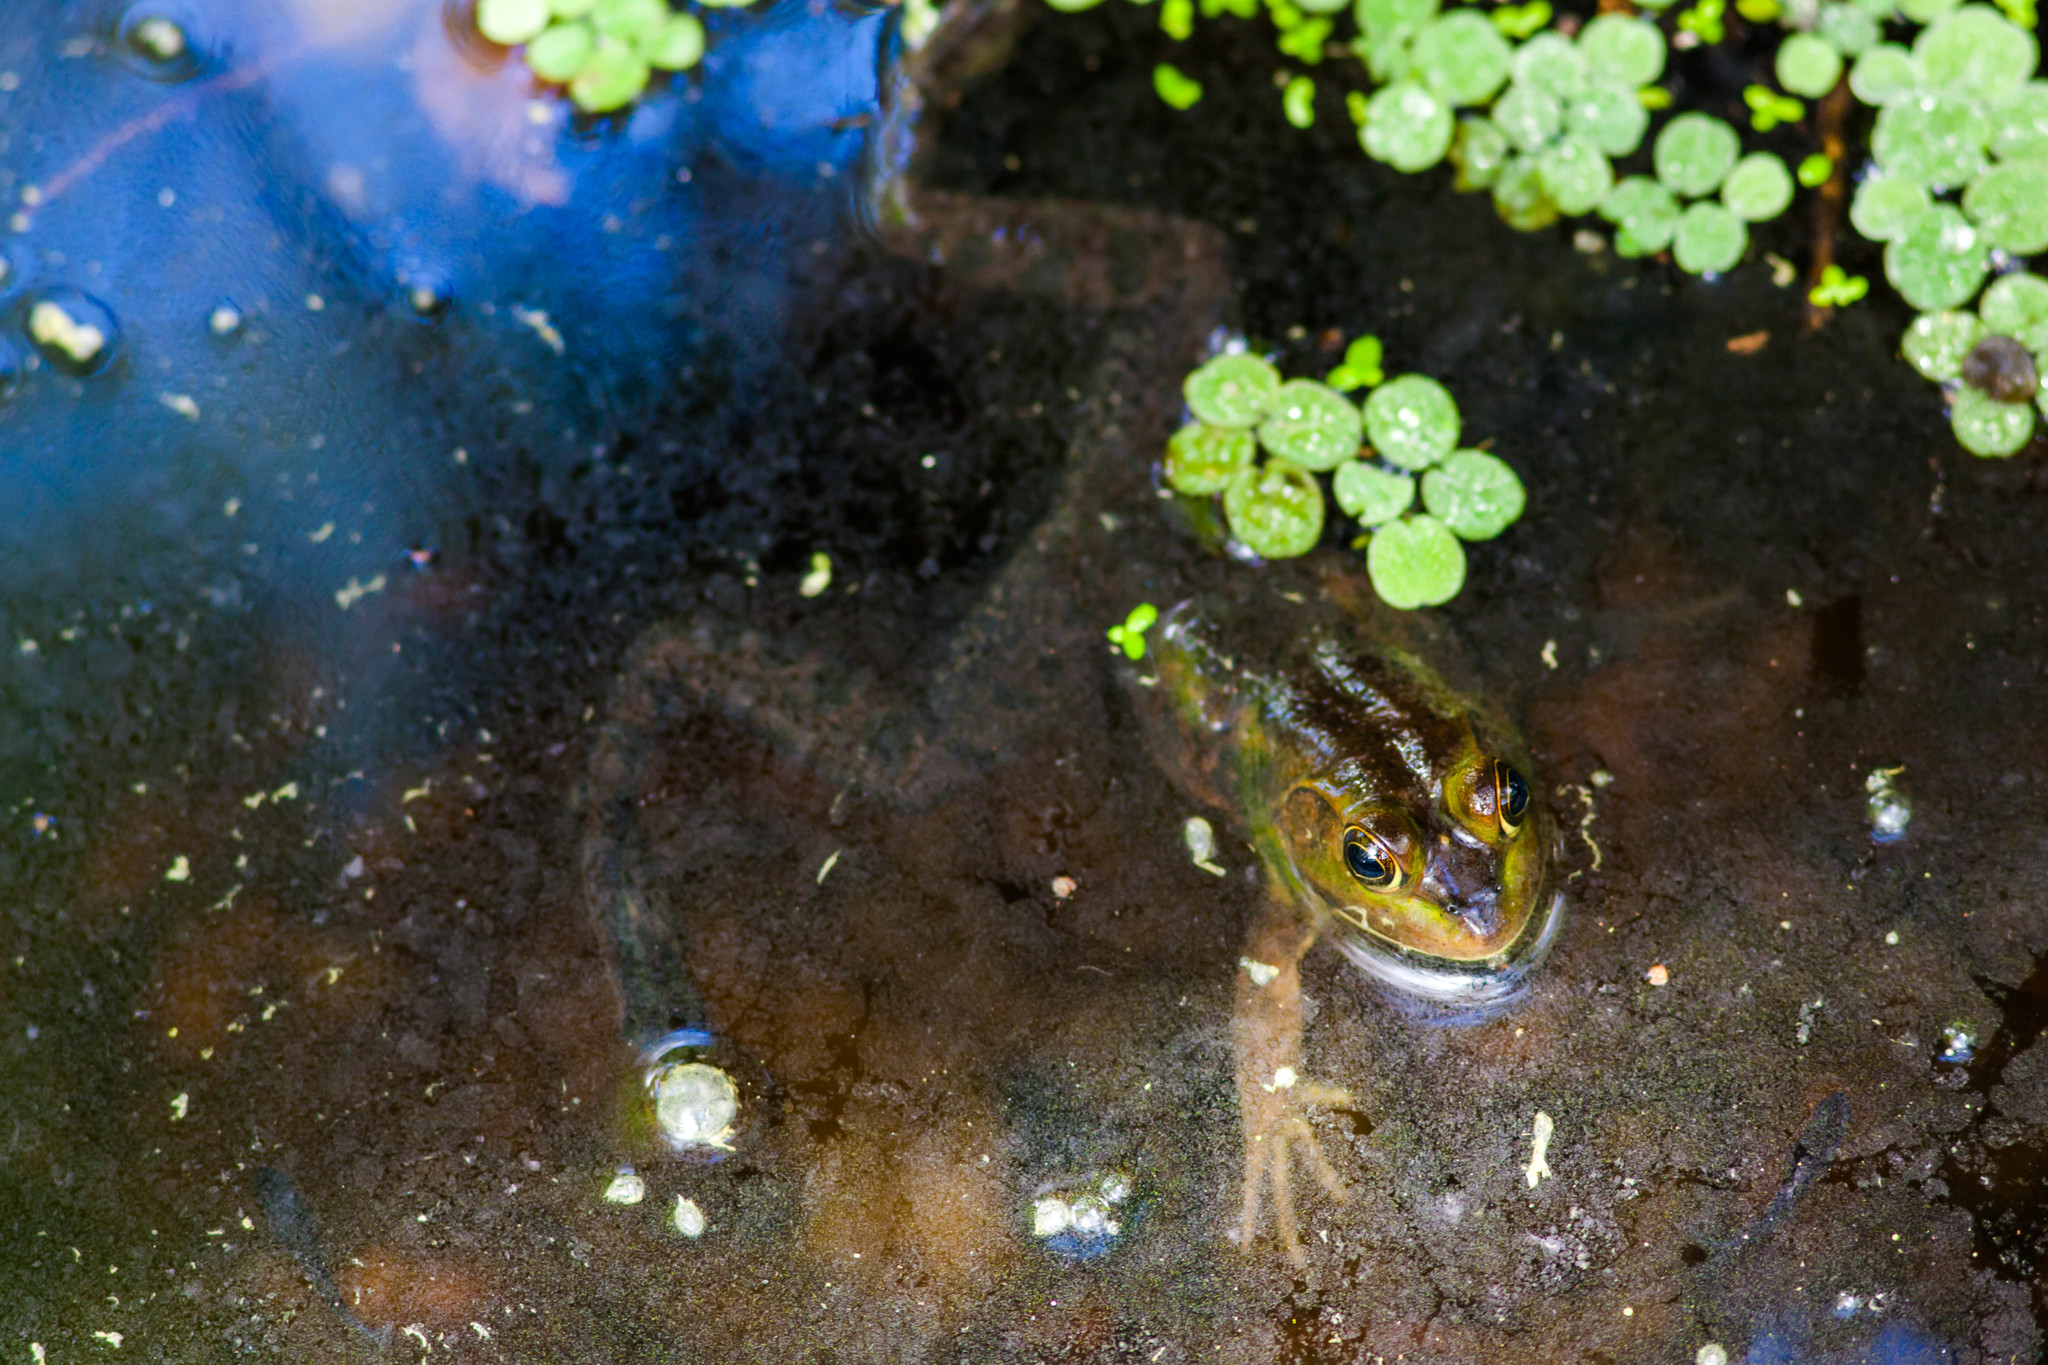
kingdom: Animalia
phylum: Chordata
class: Amphibia
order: Anura
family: Ranidae
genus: Lithobates
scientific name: Lithobates grylio
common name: Pig frog
